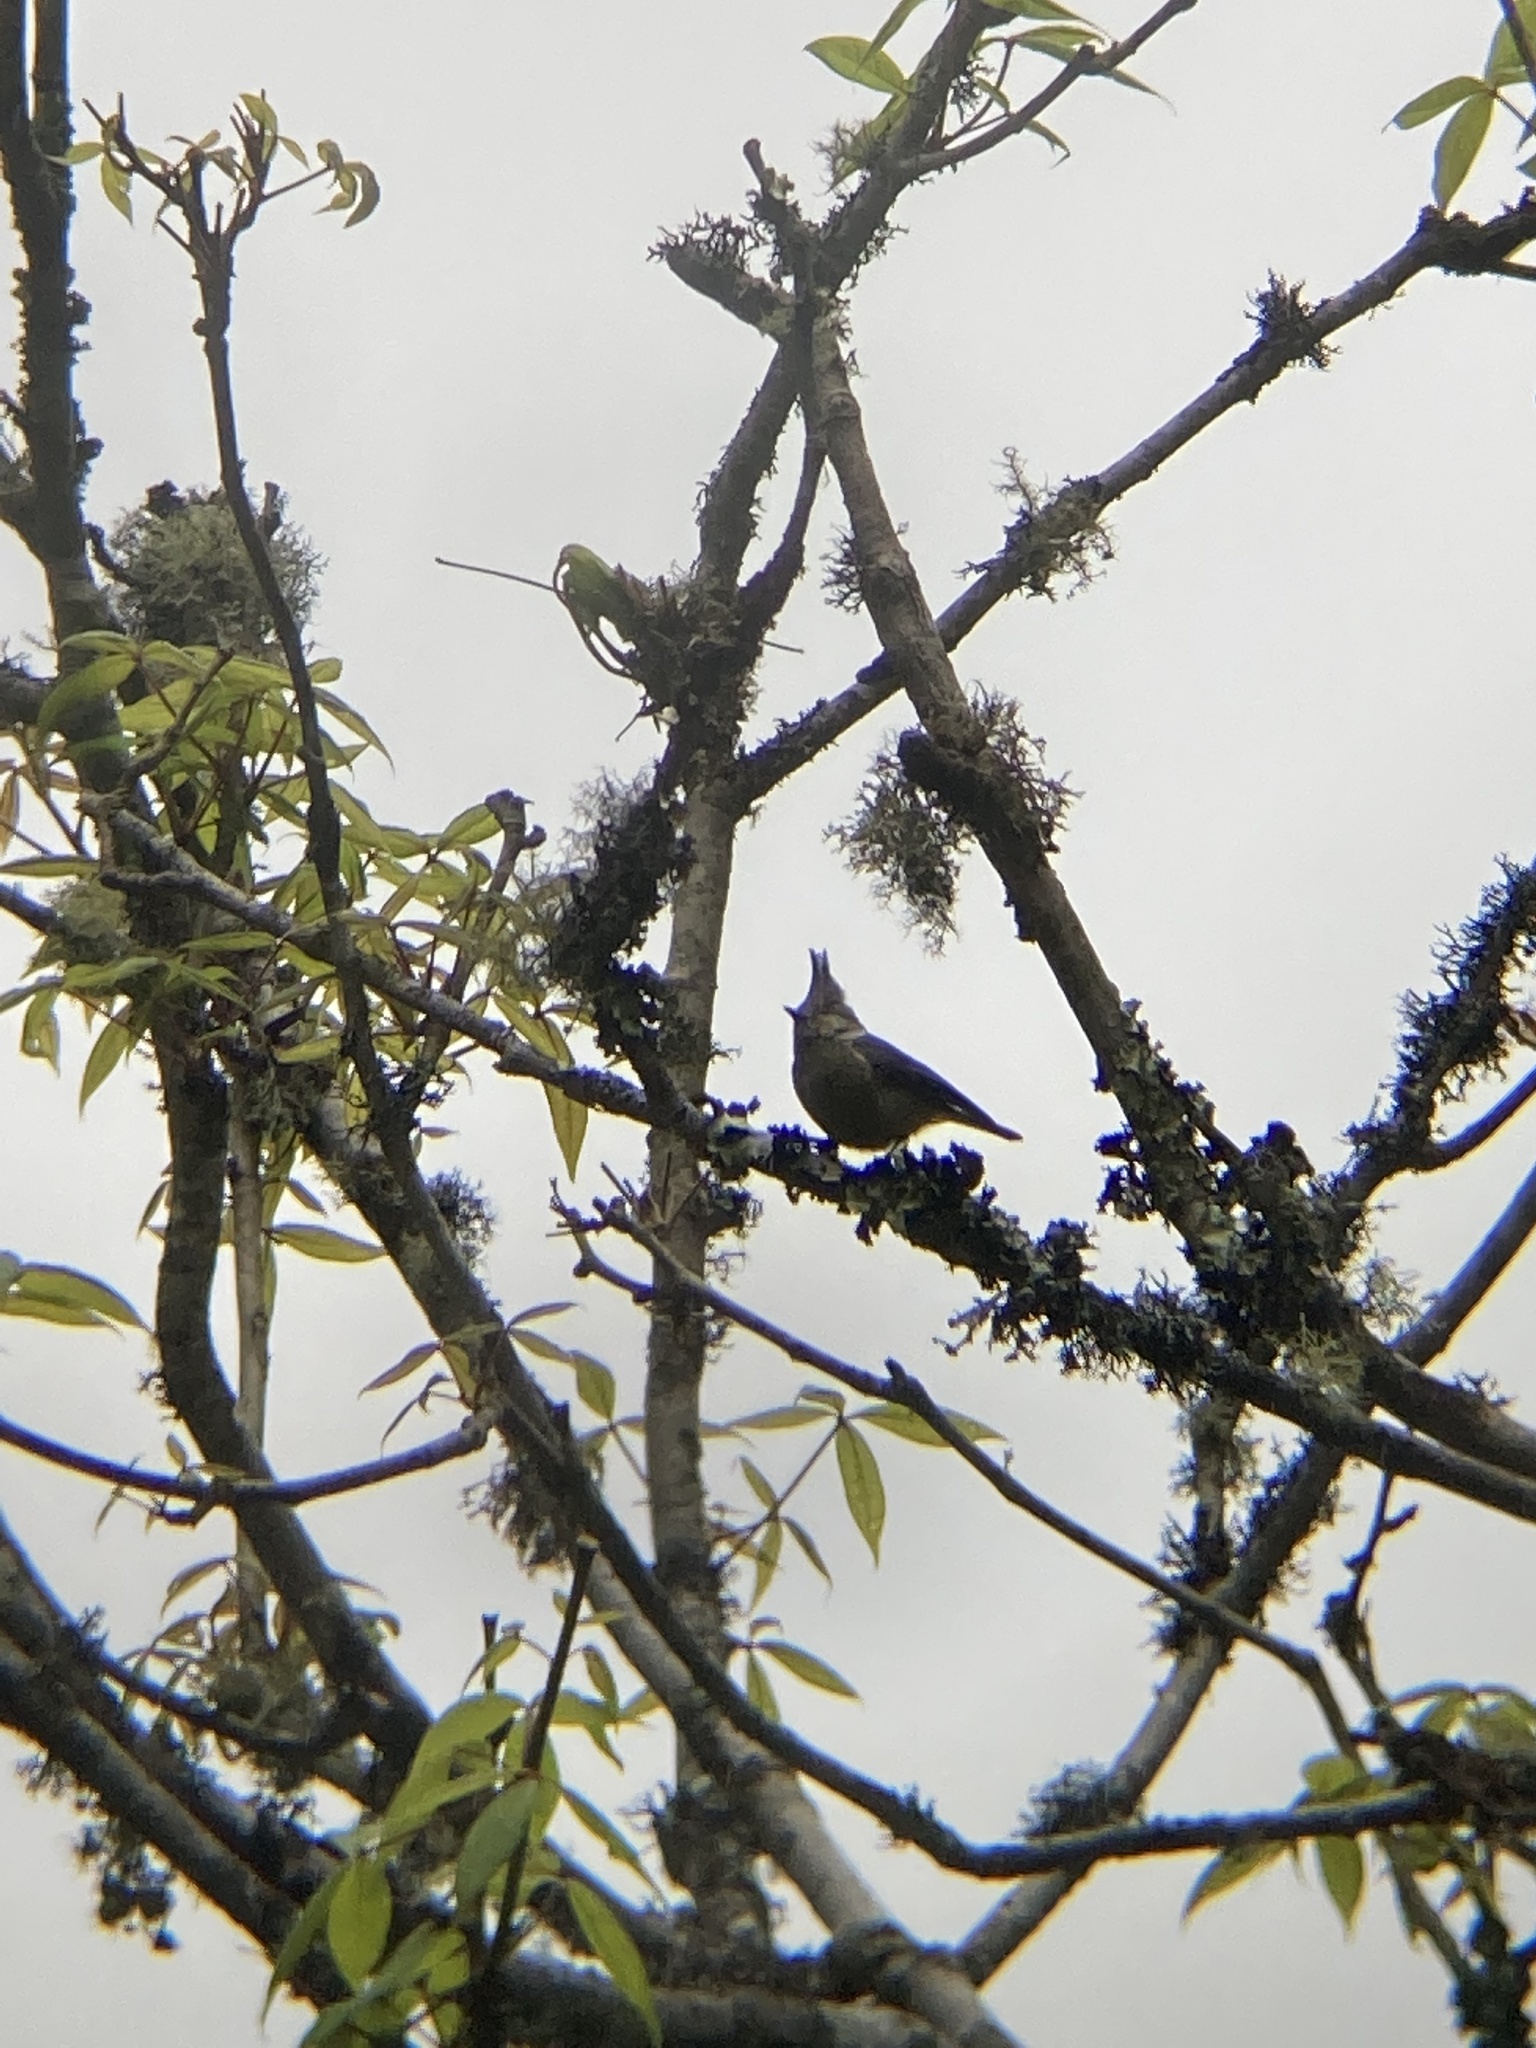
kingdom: Animalia
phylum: Chordata
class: Aves
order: Passeriformes
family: Paridae
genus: Lophophanes
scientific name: Lophophanes dichrous
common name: Grey crested tit
